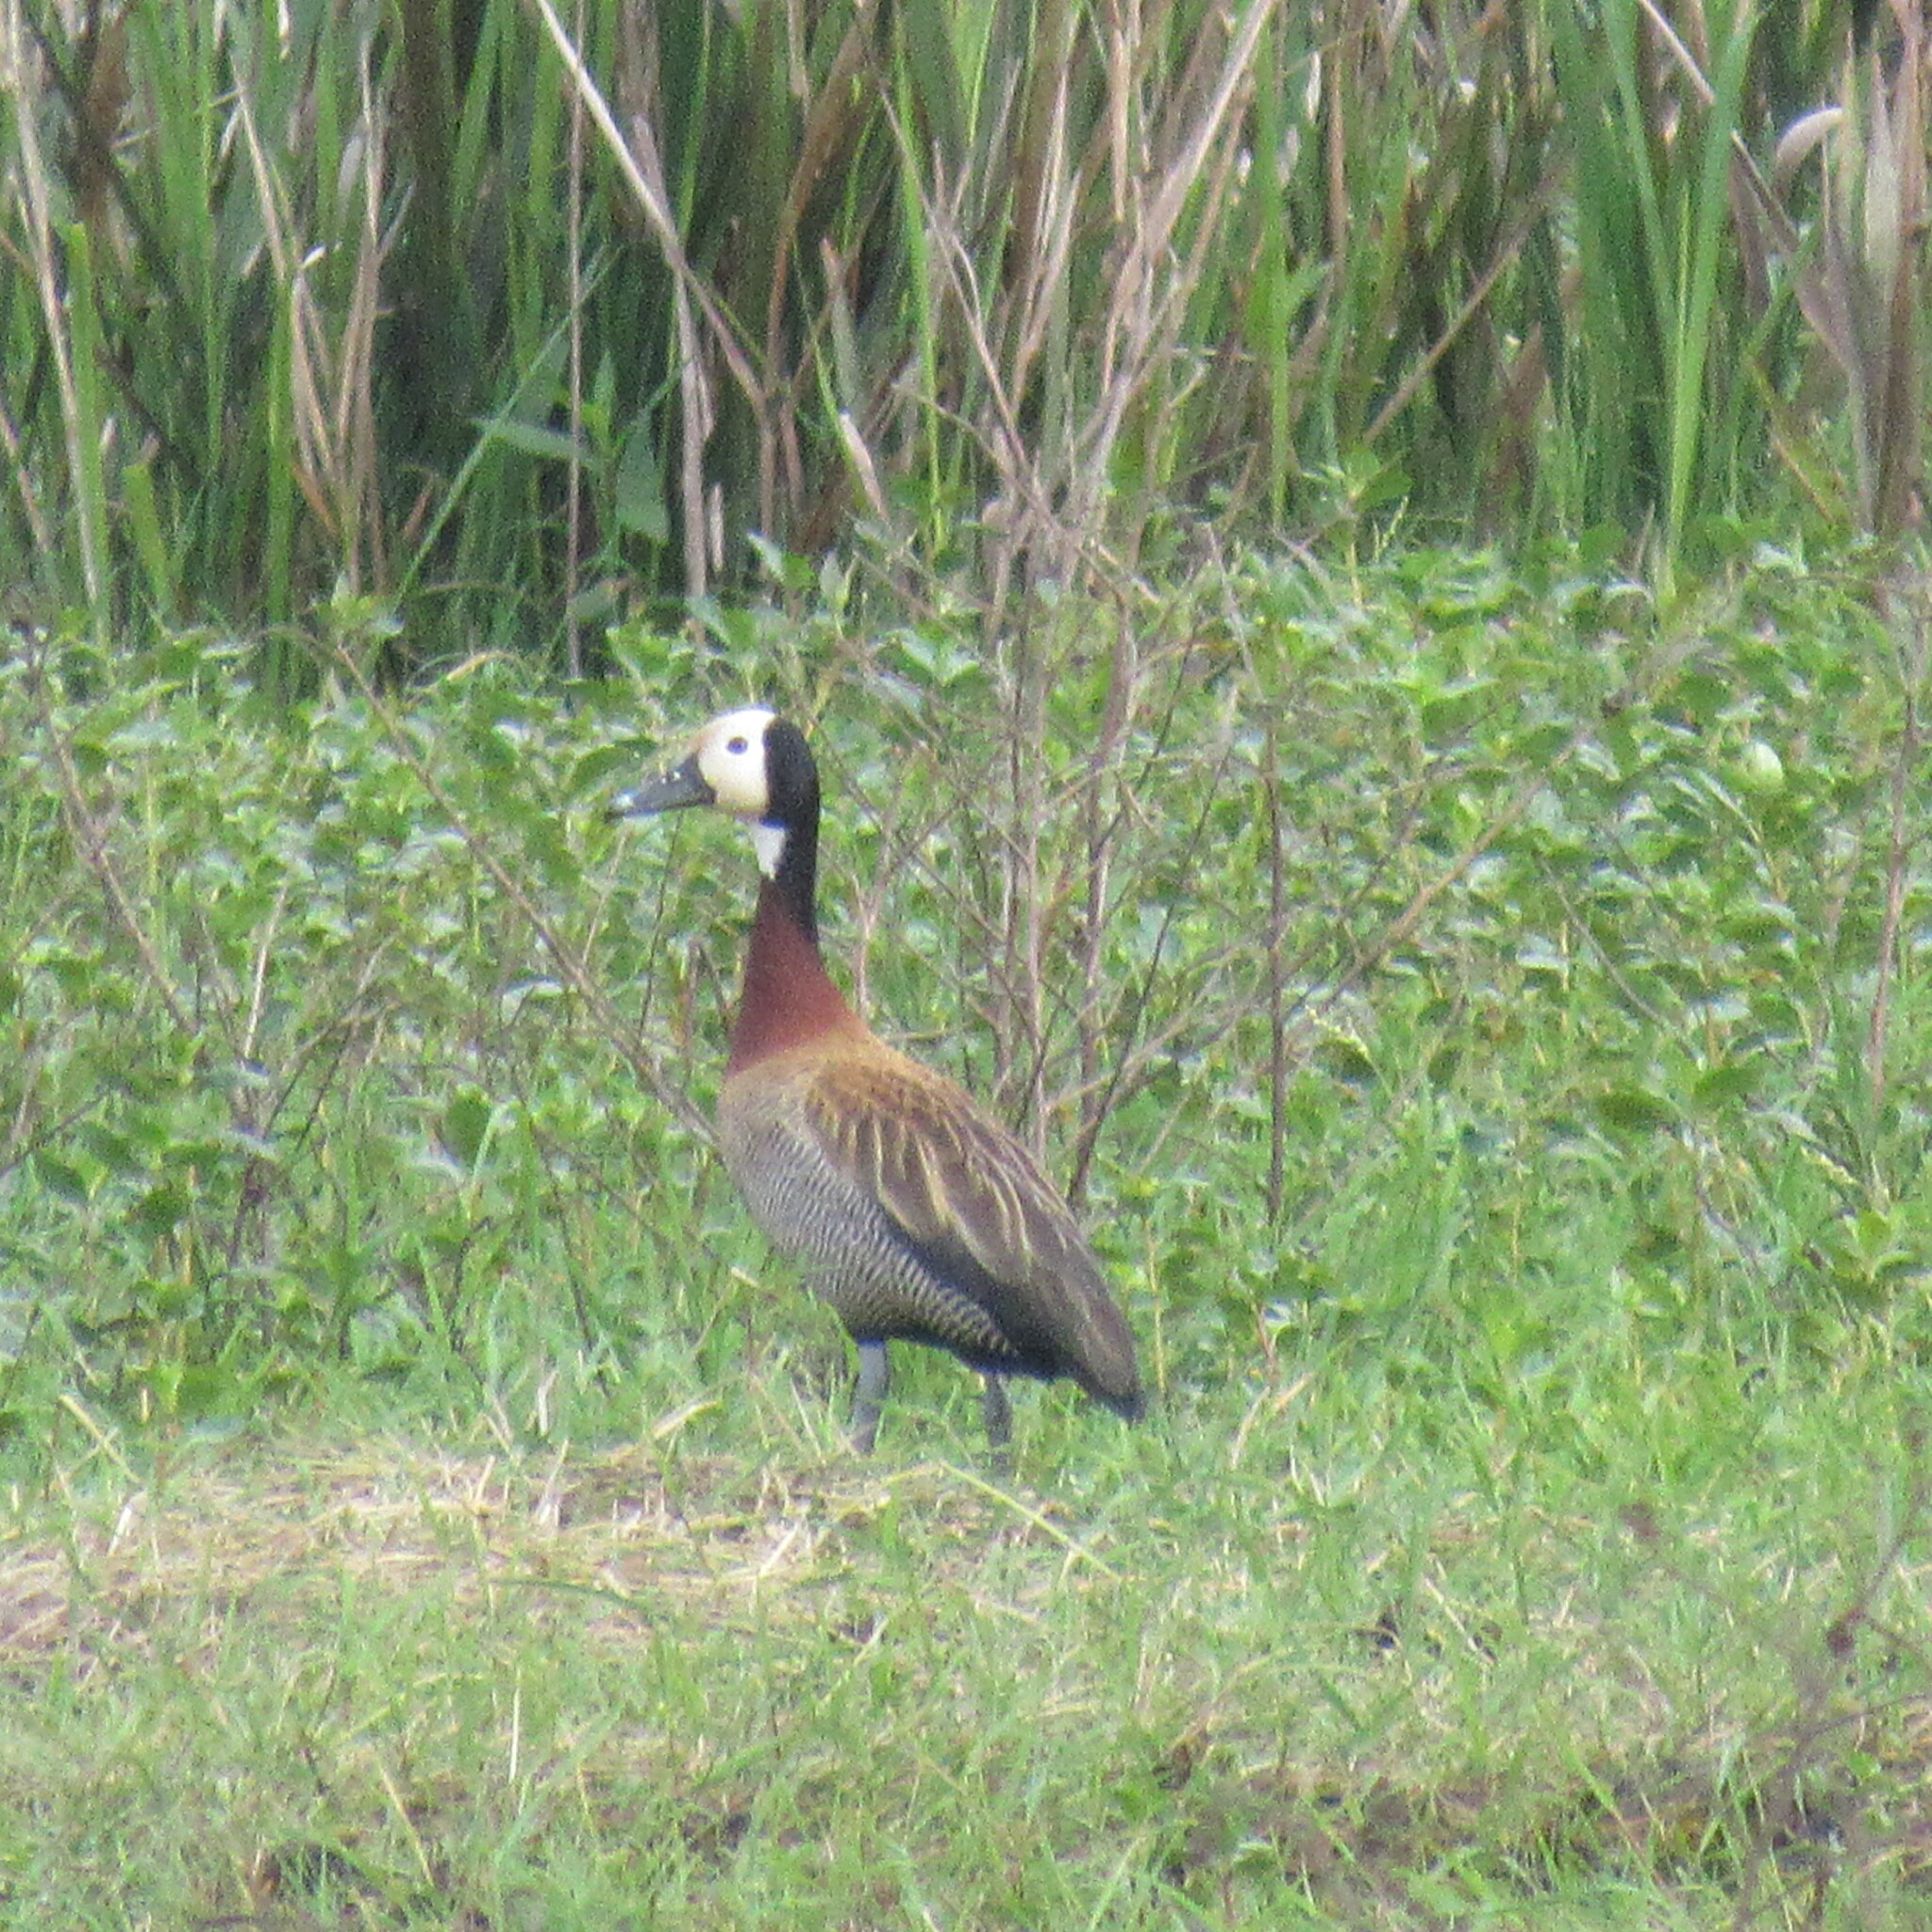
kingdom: Animalia
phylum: Chordata
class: Aves
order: Anseriformes
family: Anatidae
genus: Dendrocygna
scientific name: Dendrocygna viduata
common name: White-faced whistling duck
